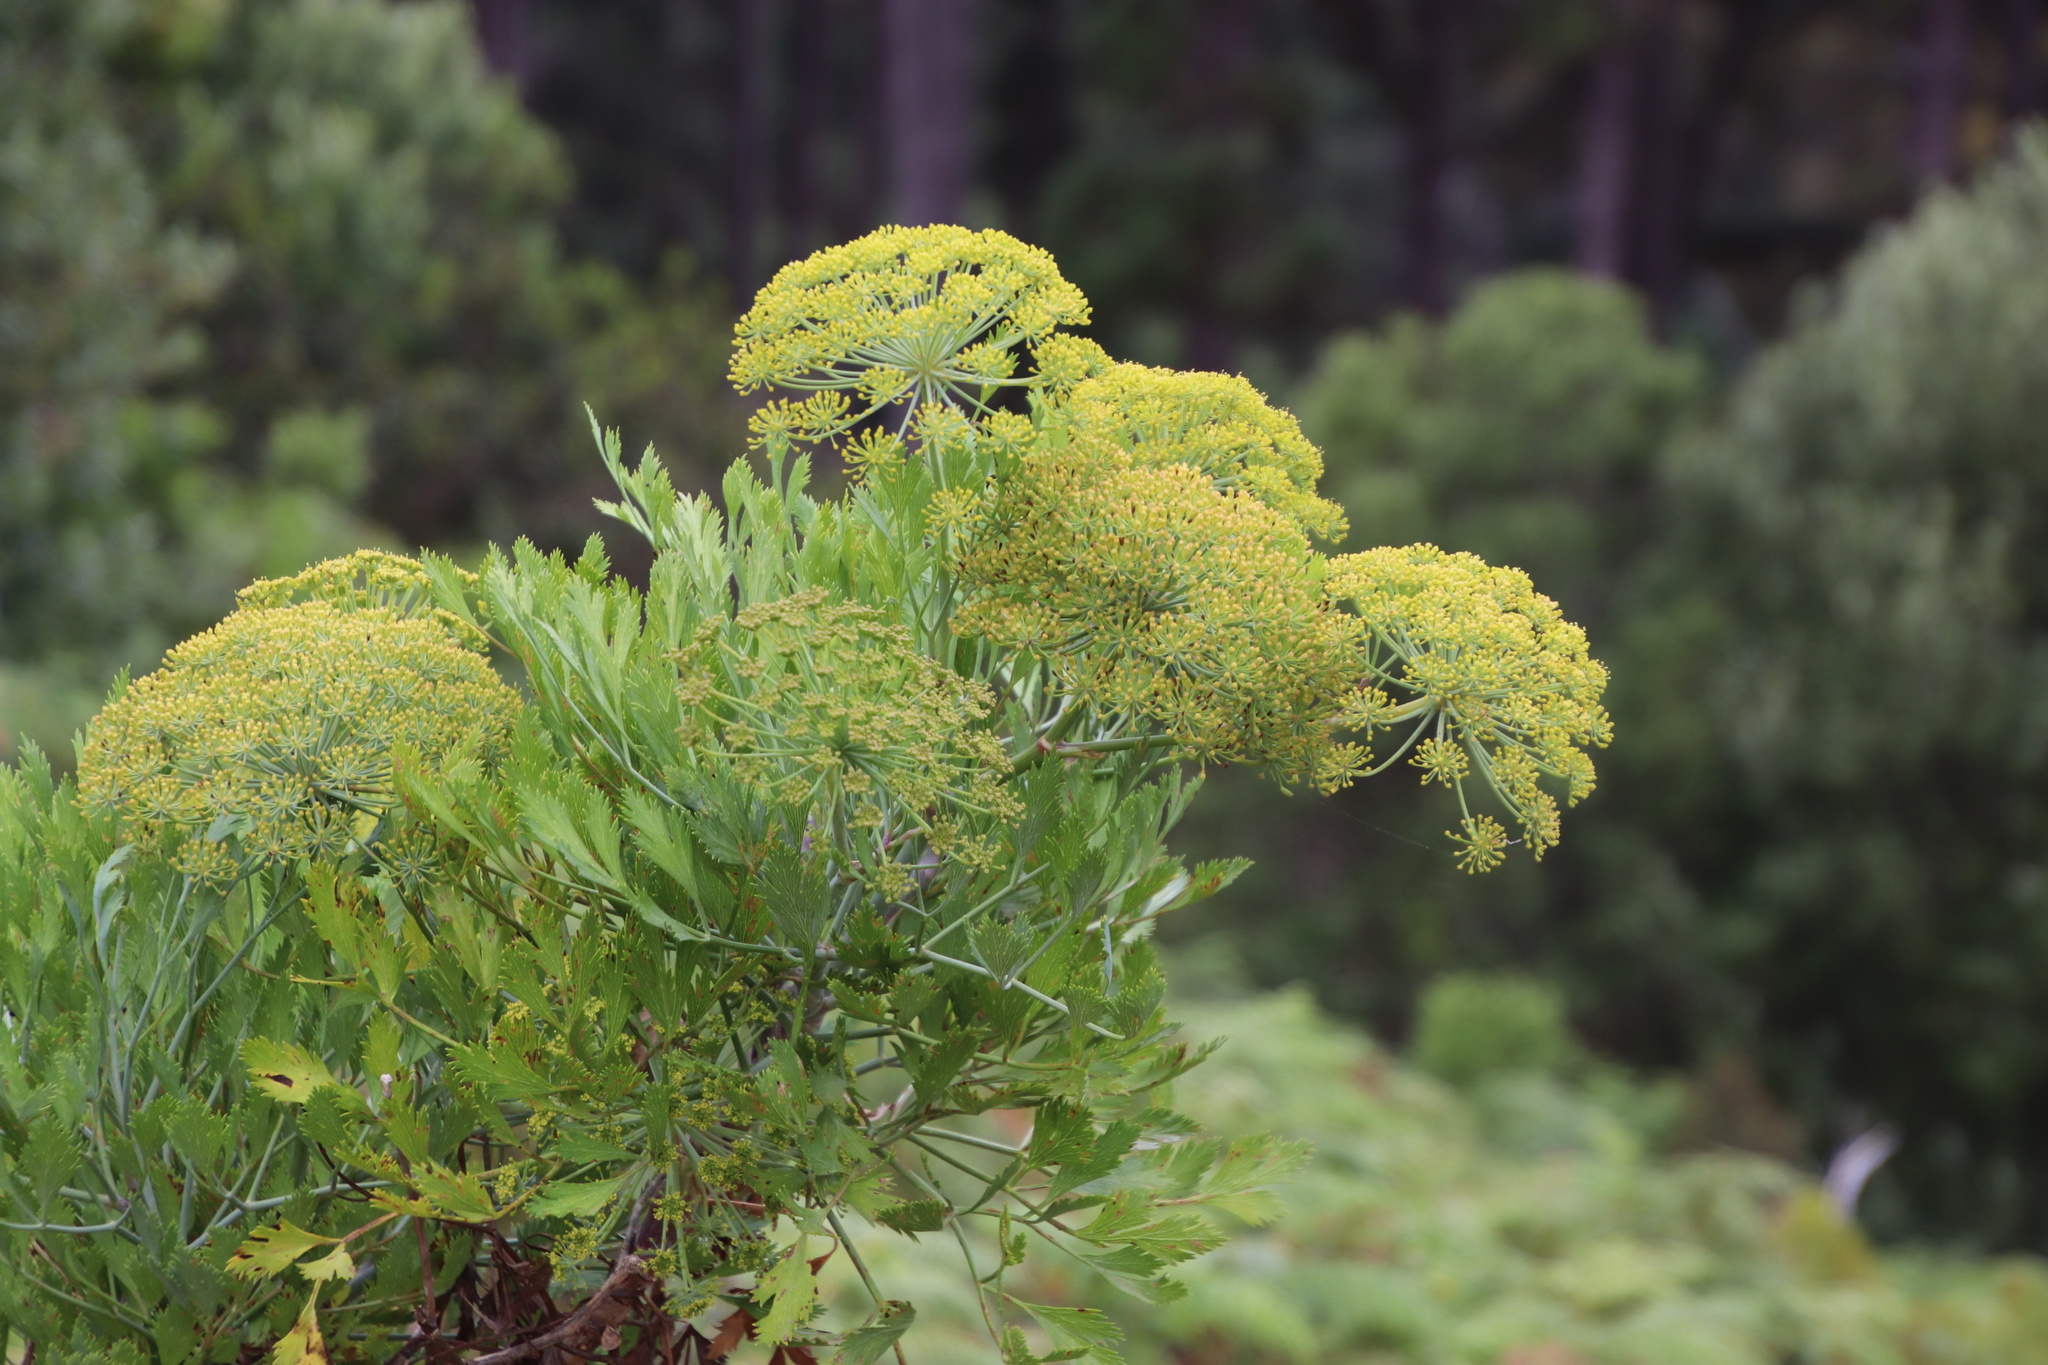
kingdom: Plantae
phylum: Tracheophyta
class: Magnoliopsida
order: Apiales
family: Apiaceae
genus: Notobubon
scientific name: Notobubon galbanum
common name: Blisterbush
